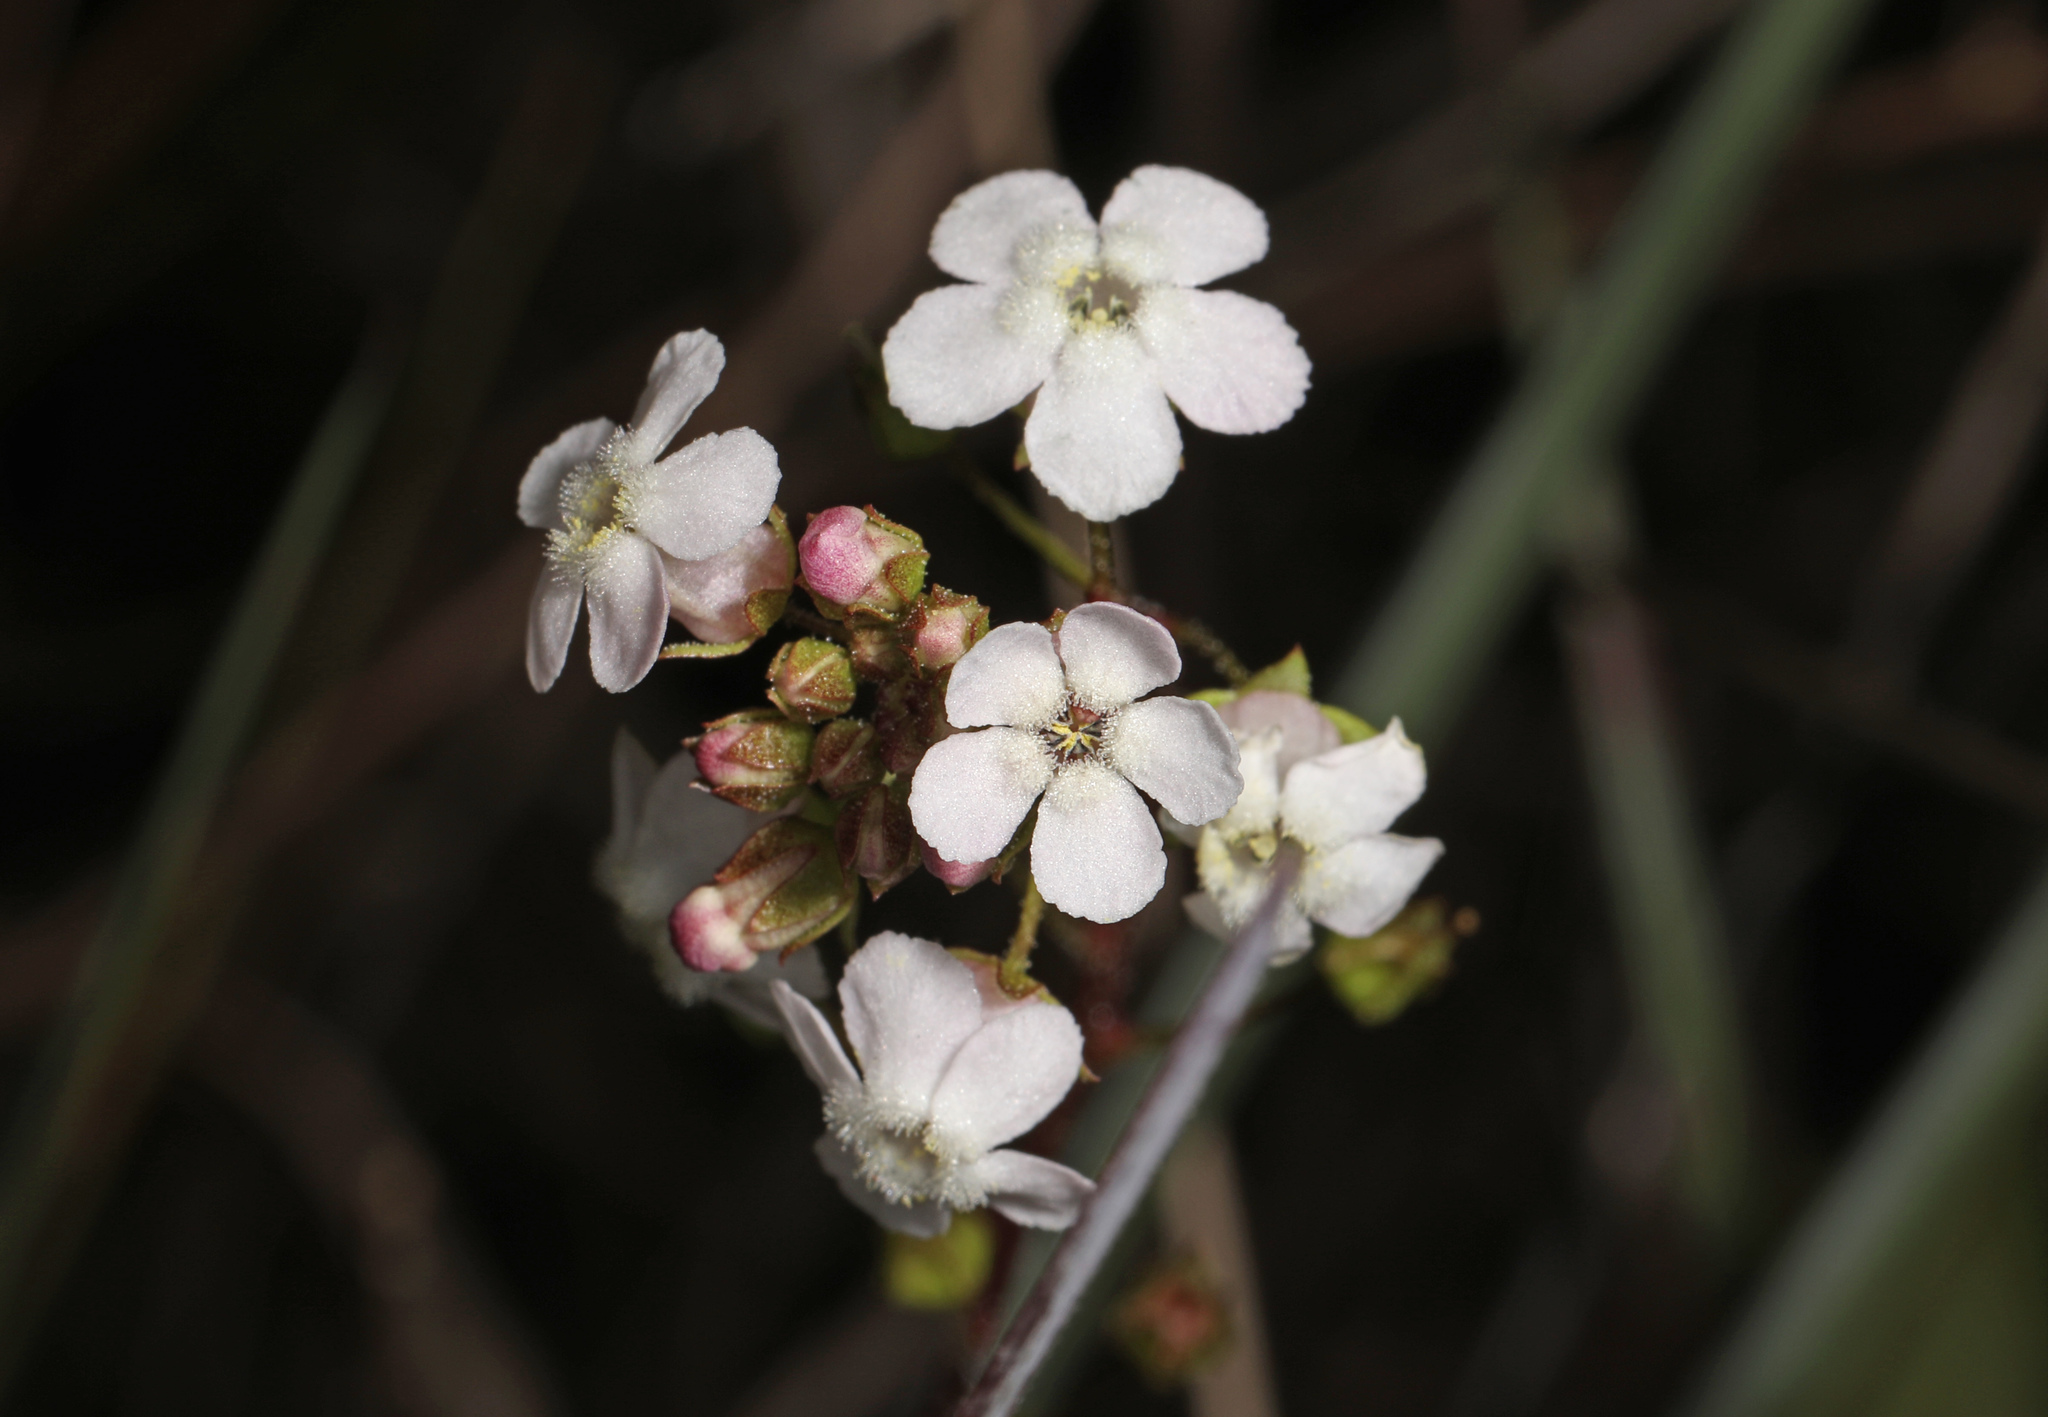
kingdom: Plantae
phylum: Tracheophyta
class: Magnoliopsida
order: Ericales
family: Primulaceae
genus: Samolus
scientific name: Samolus ebracteatus
